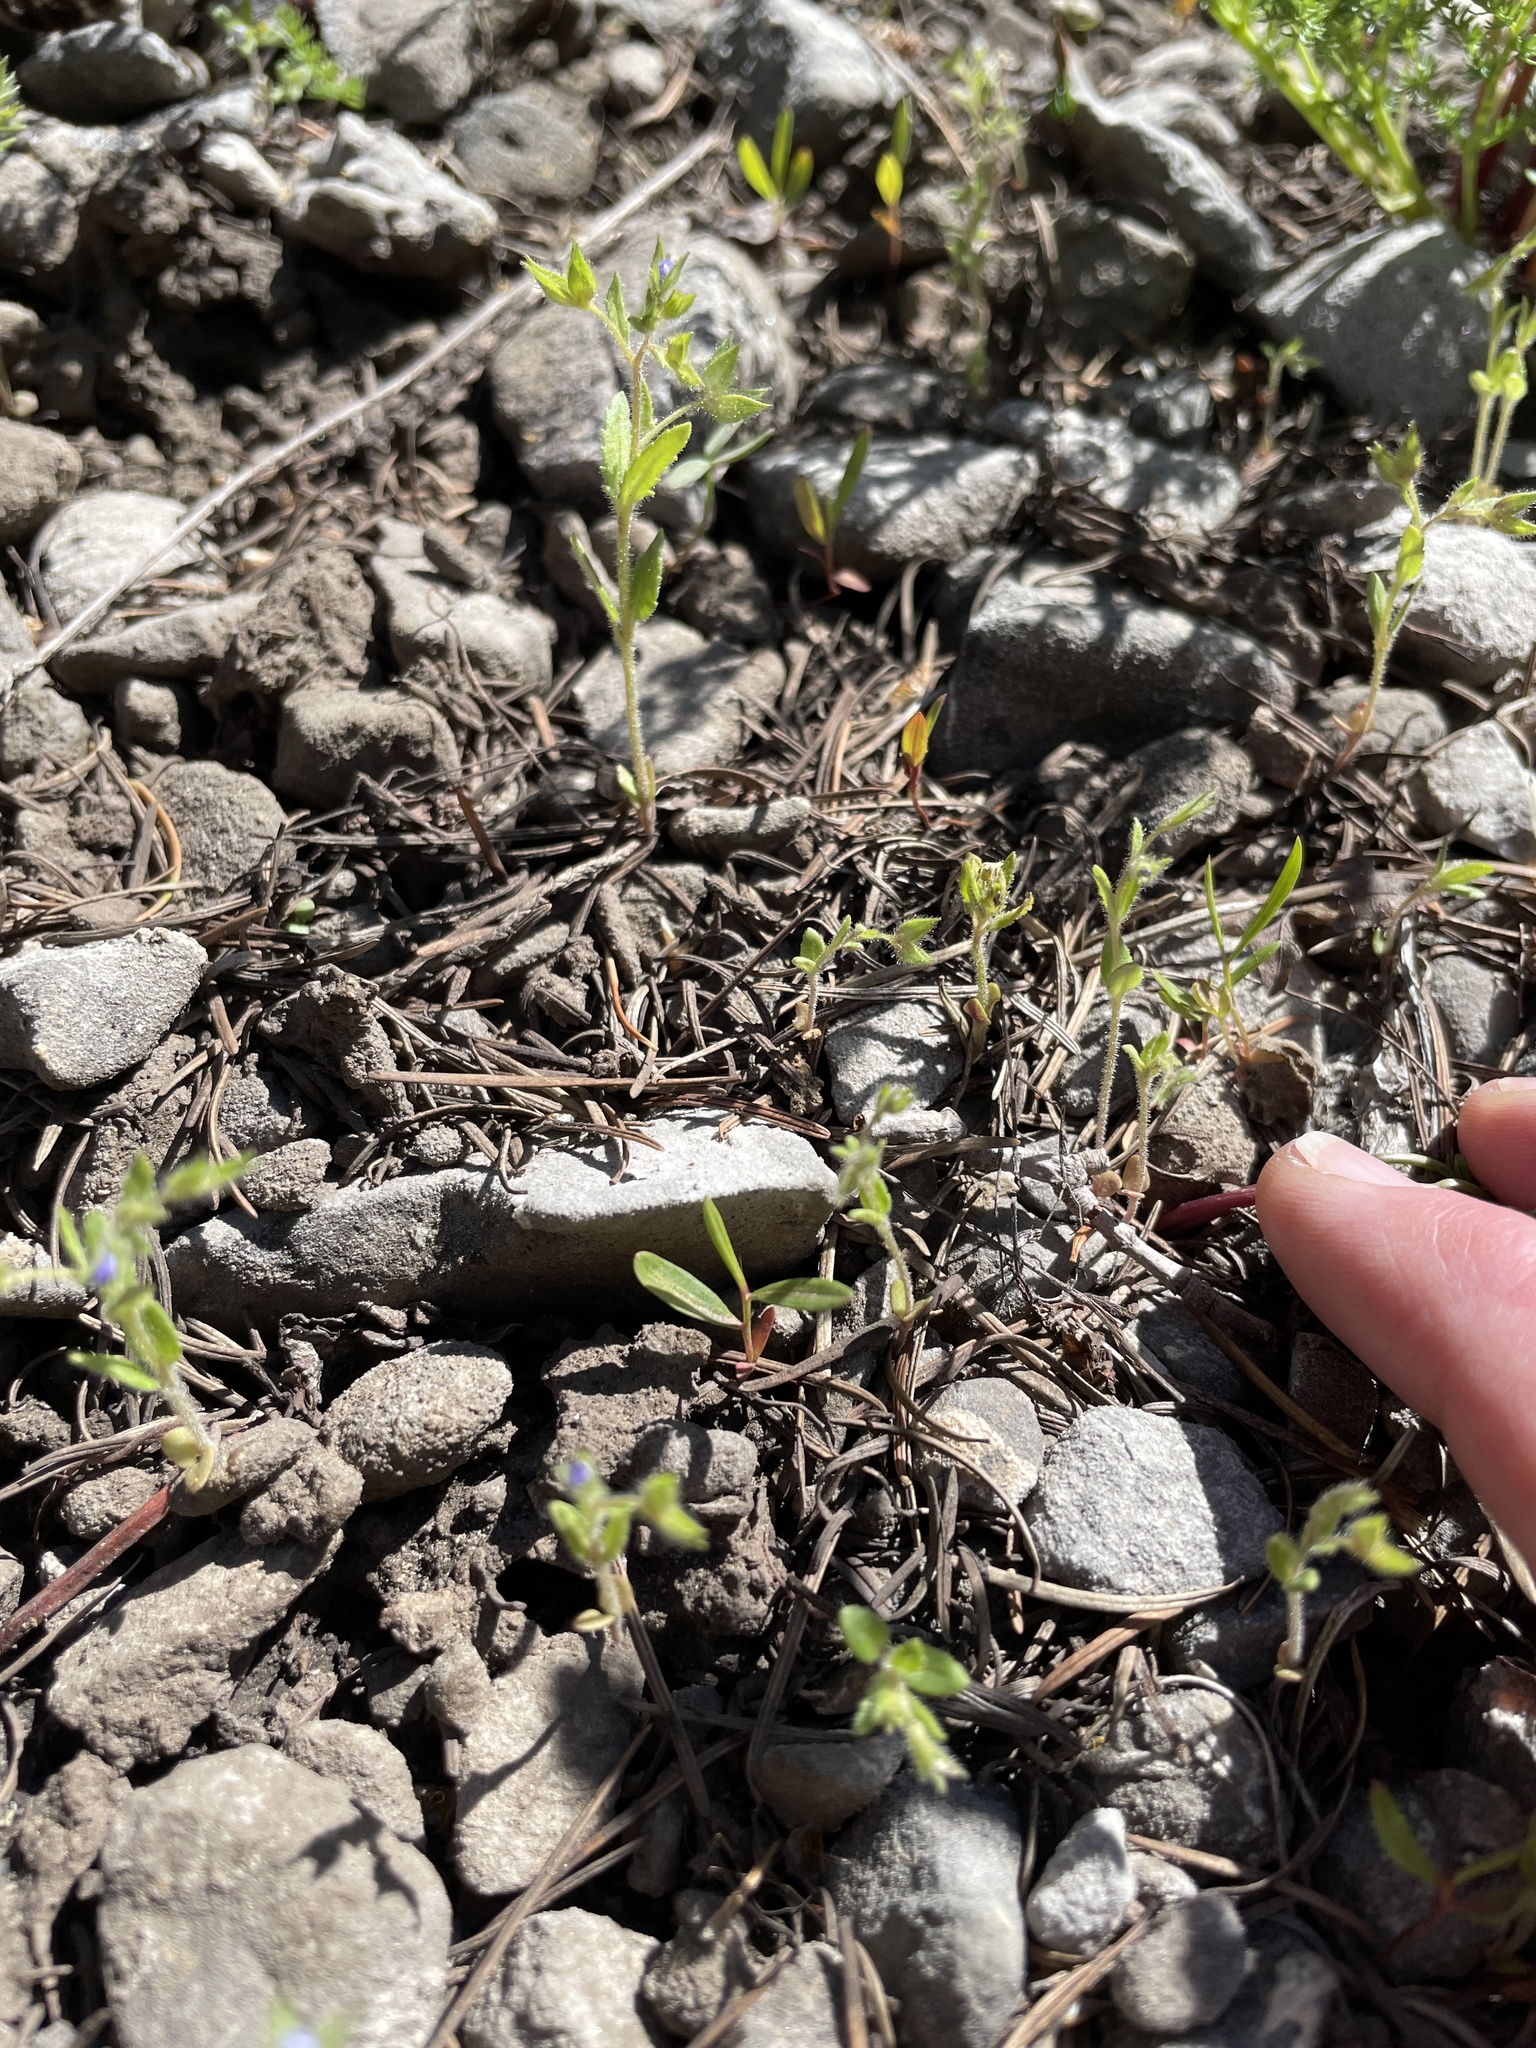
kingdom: Plantae
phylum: Tracheophyta
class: Magnoliopsida
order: Lamiales
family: Plantaginaceae
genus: Veronica
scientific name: Veronica biloba
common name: Twolobe speedwell
